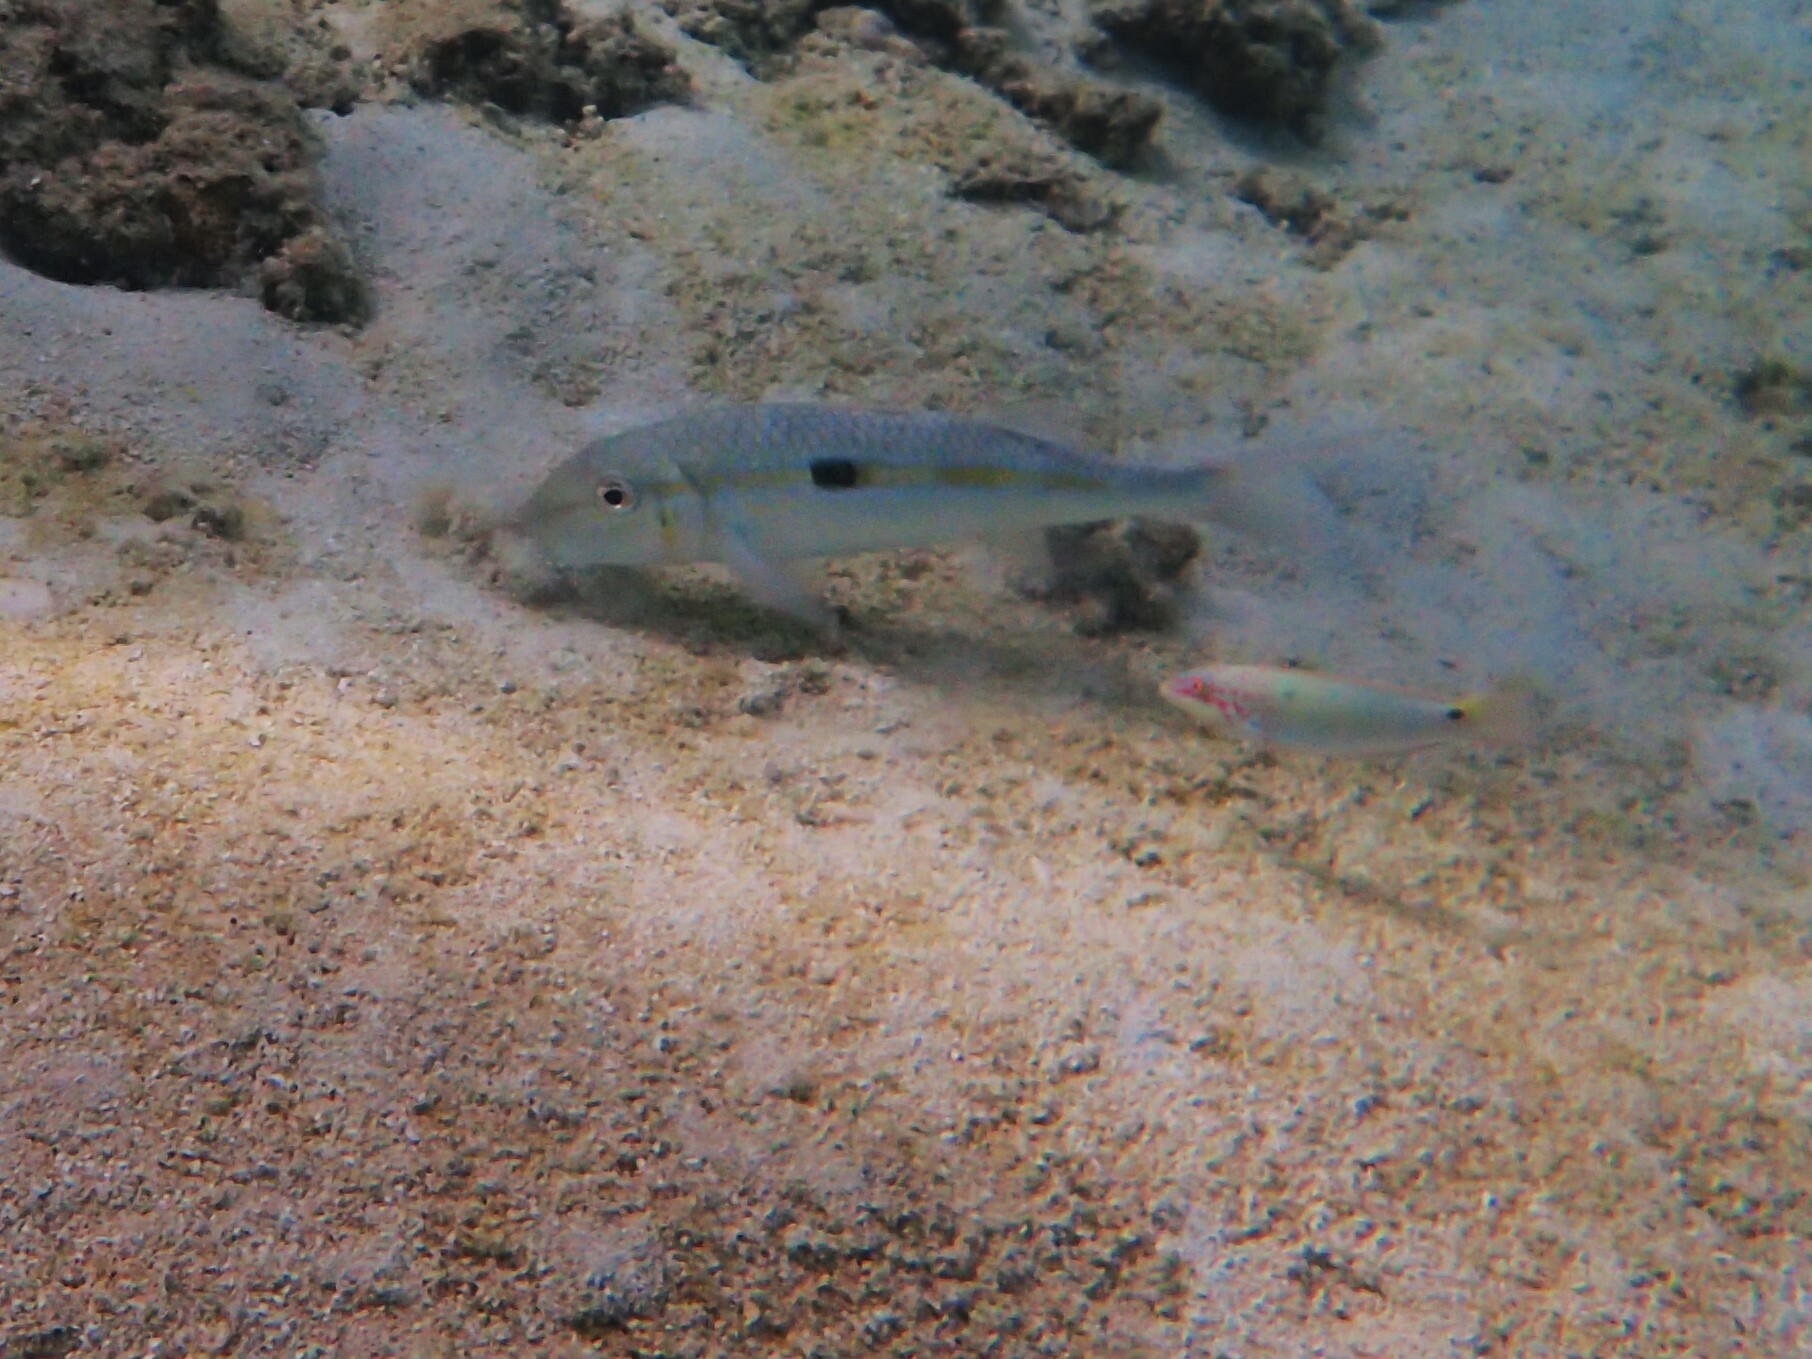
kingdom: Animalia
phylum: Chordata
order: Perciformes
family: Mullidae
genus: Mulloidichthys
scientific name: Mulloidichthys flavolineatus
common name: Yellowstripe goatfish
